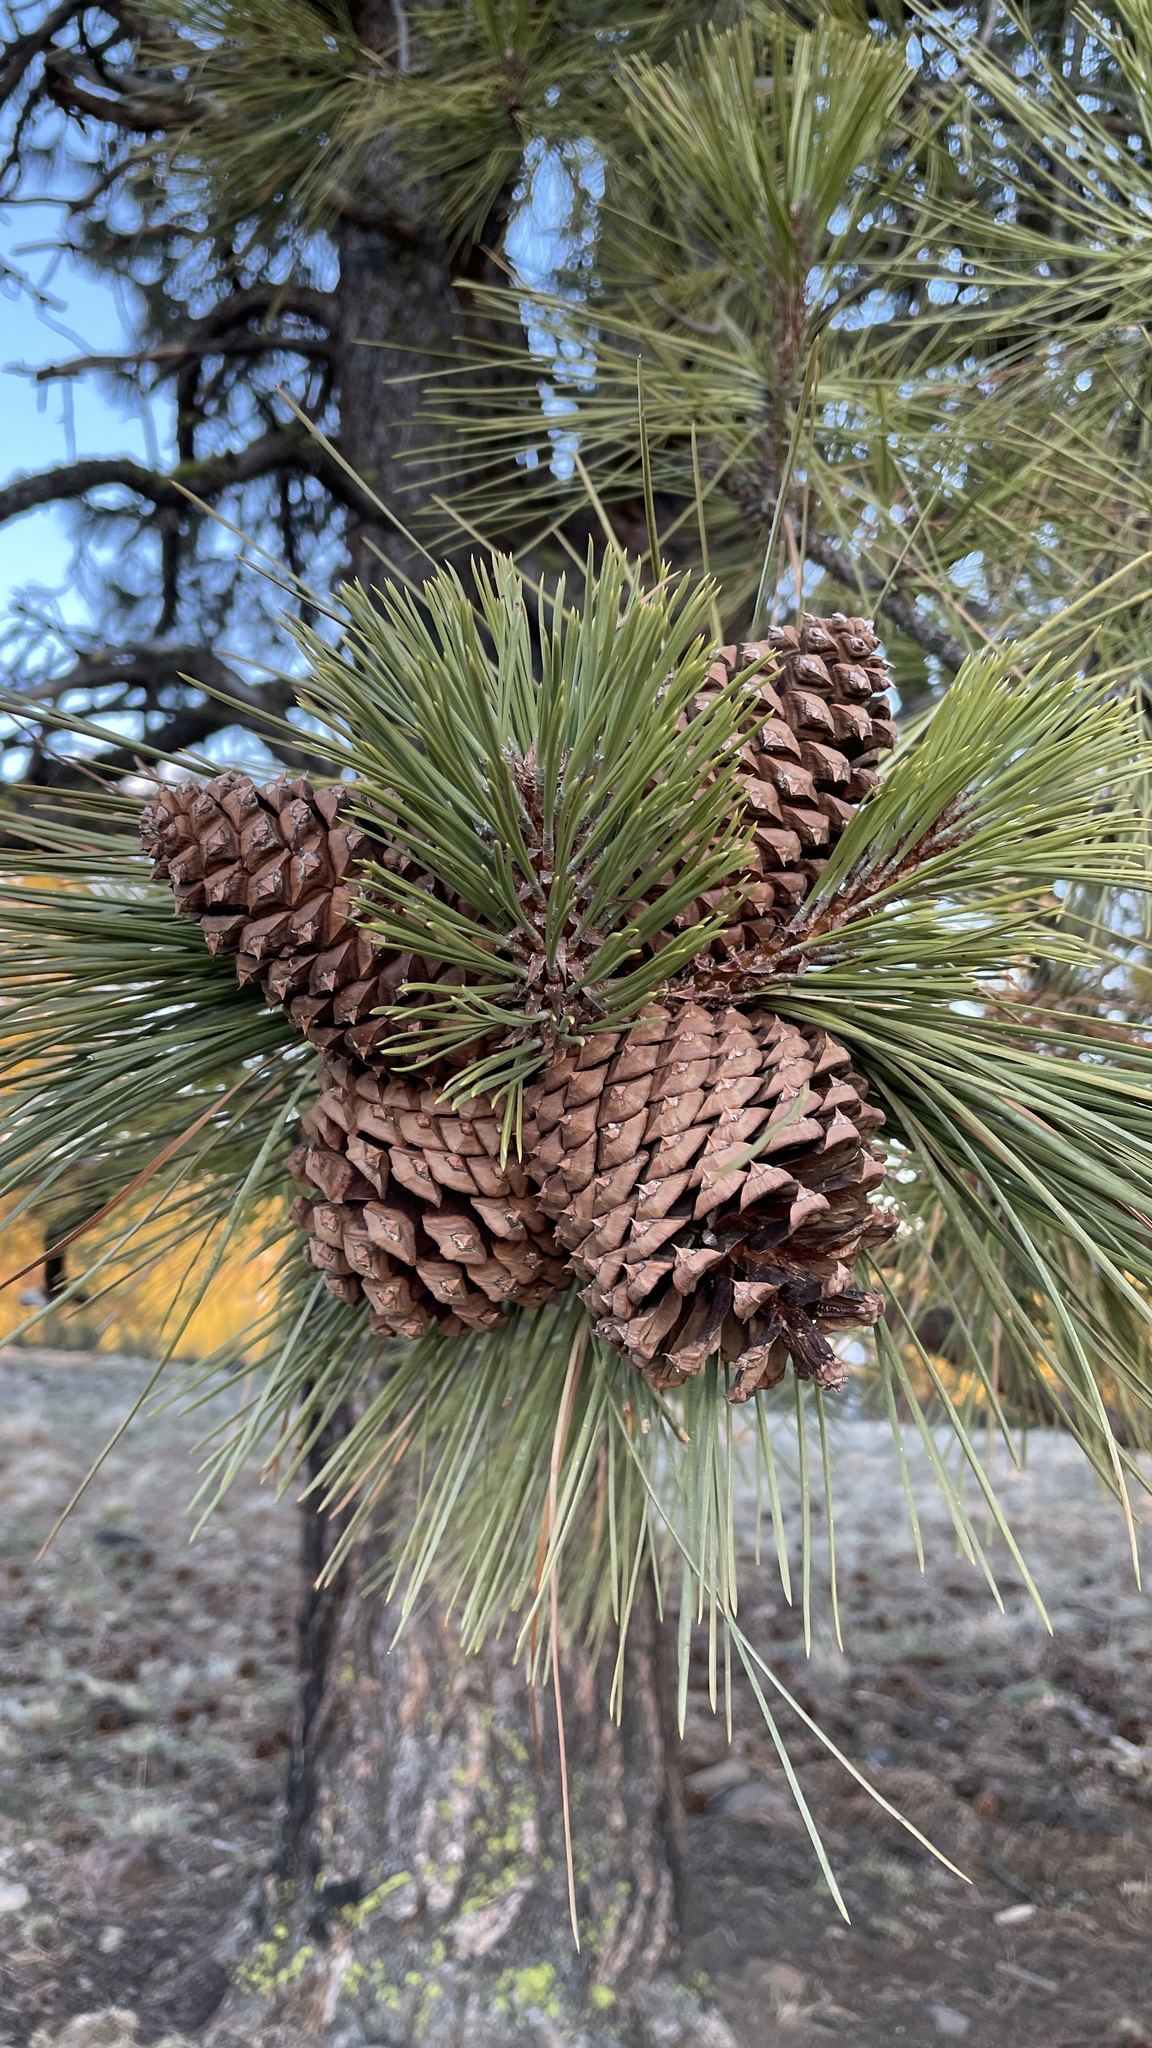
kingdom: Plantae
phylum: Tracheophyta
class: Pinopsida
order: Pinales
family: Pinaceae
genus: Pinus
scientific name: Pinus ponderosa
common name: Western yellow-pine
